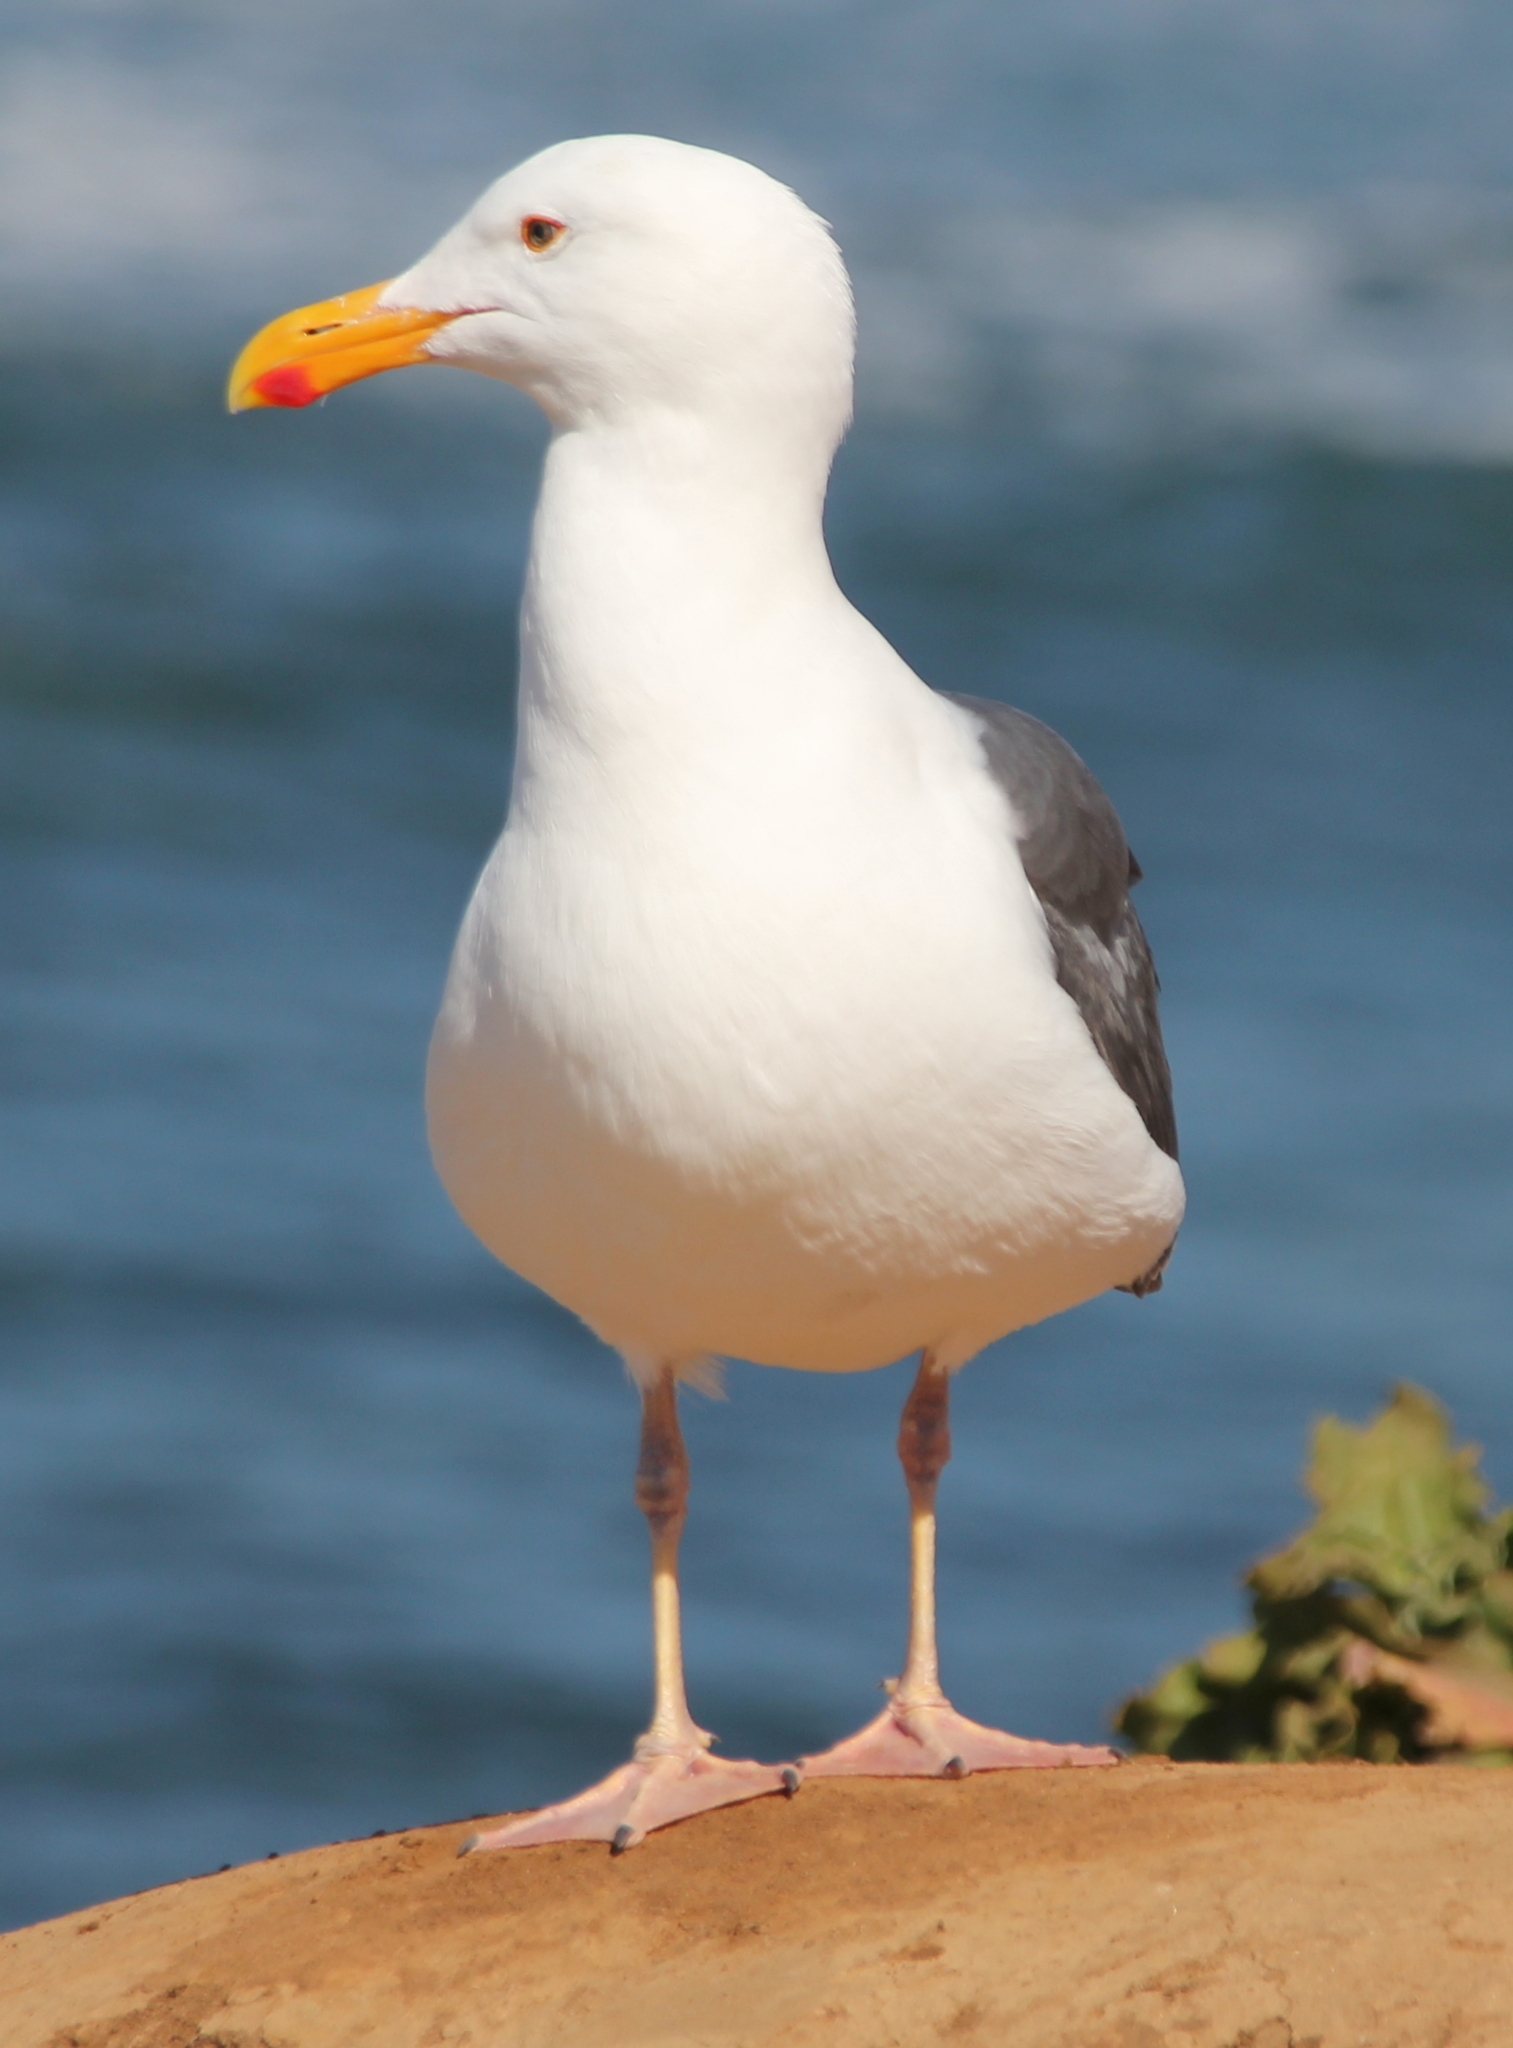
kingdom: Animalia
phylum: Chordata
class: Aves
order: Charadriiformes
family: Laridae
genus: Larus
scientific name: Larus occidentalis
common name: Western gull
